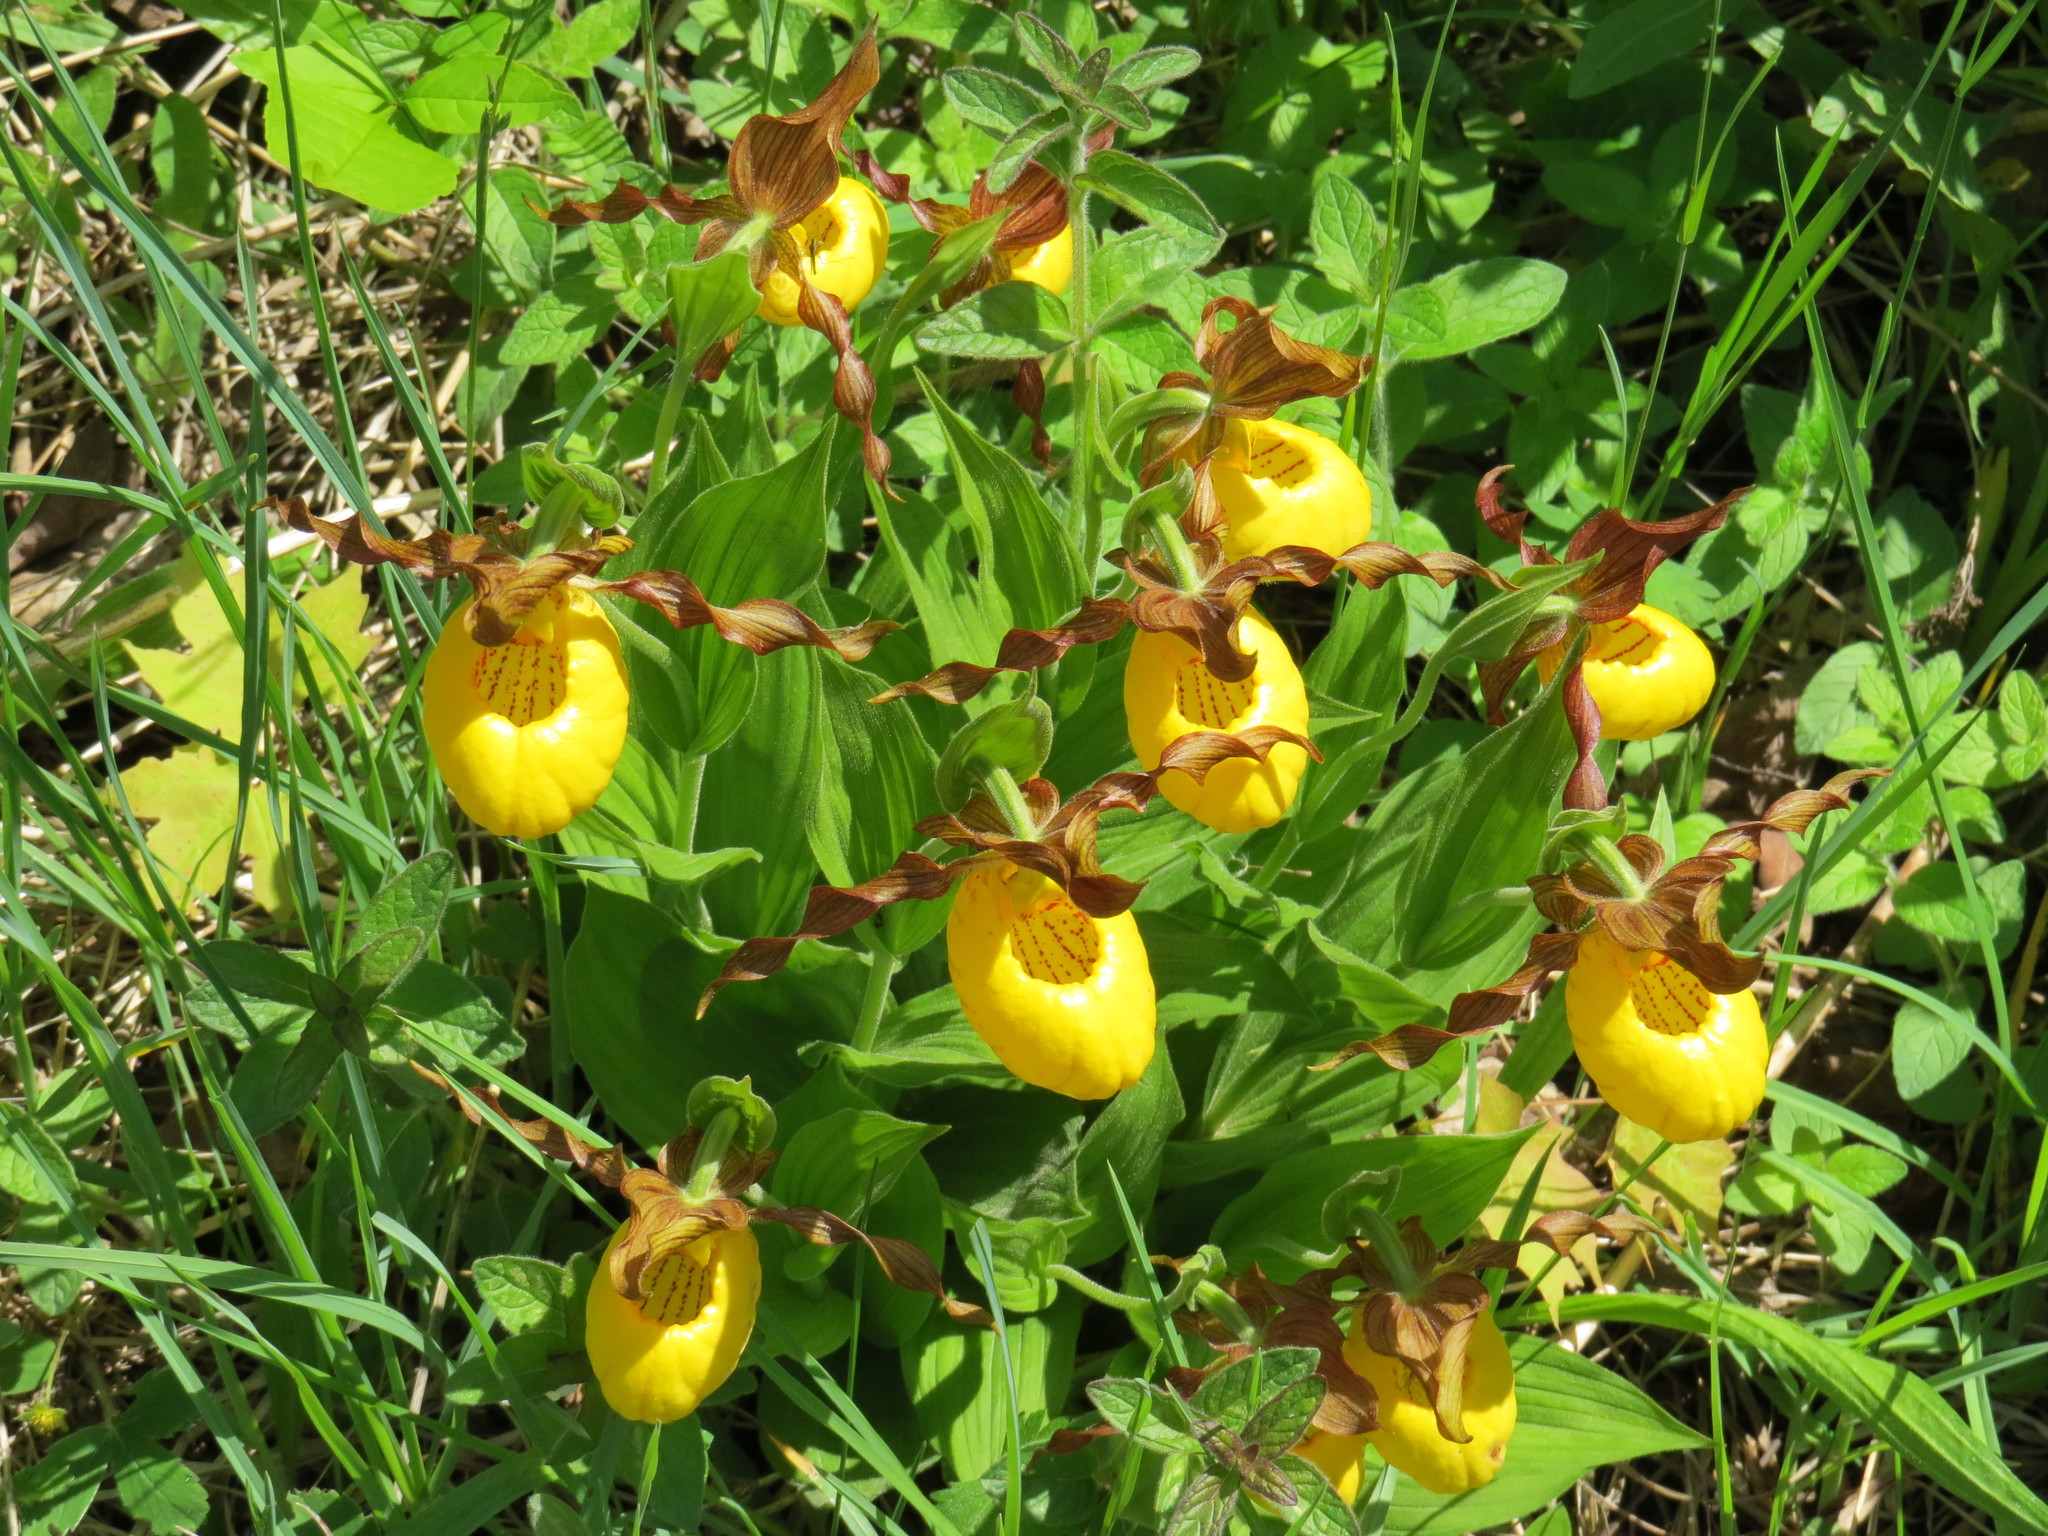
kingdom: Plantae
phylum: Tracheophyta
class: Liliopsida
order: Asparagales
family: Orchidaceae
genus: Cypripedium
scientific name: Cypripedium parviflorum
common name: American yellow lady's-slipper
